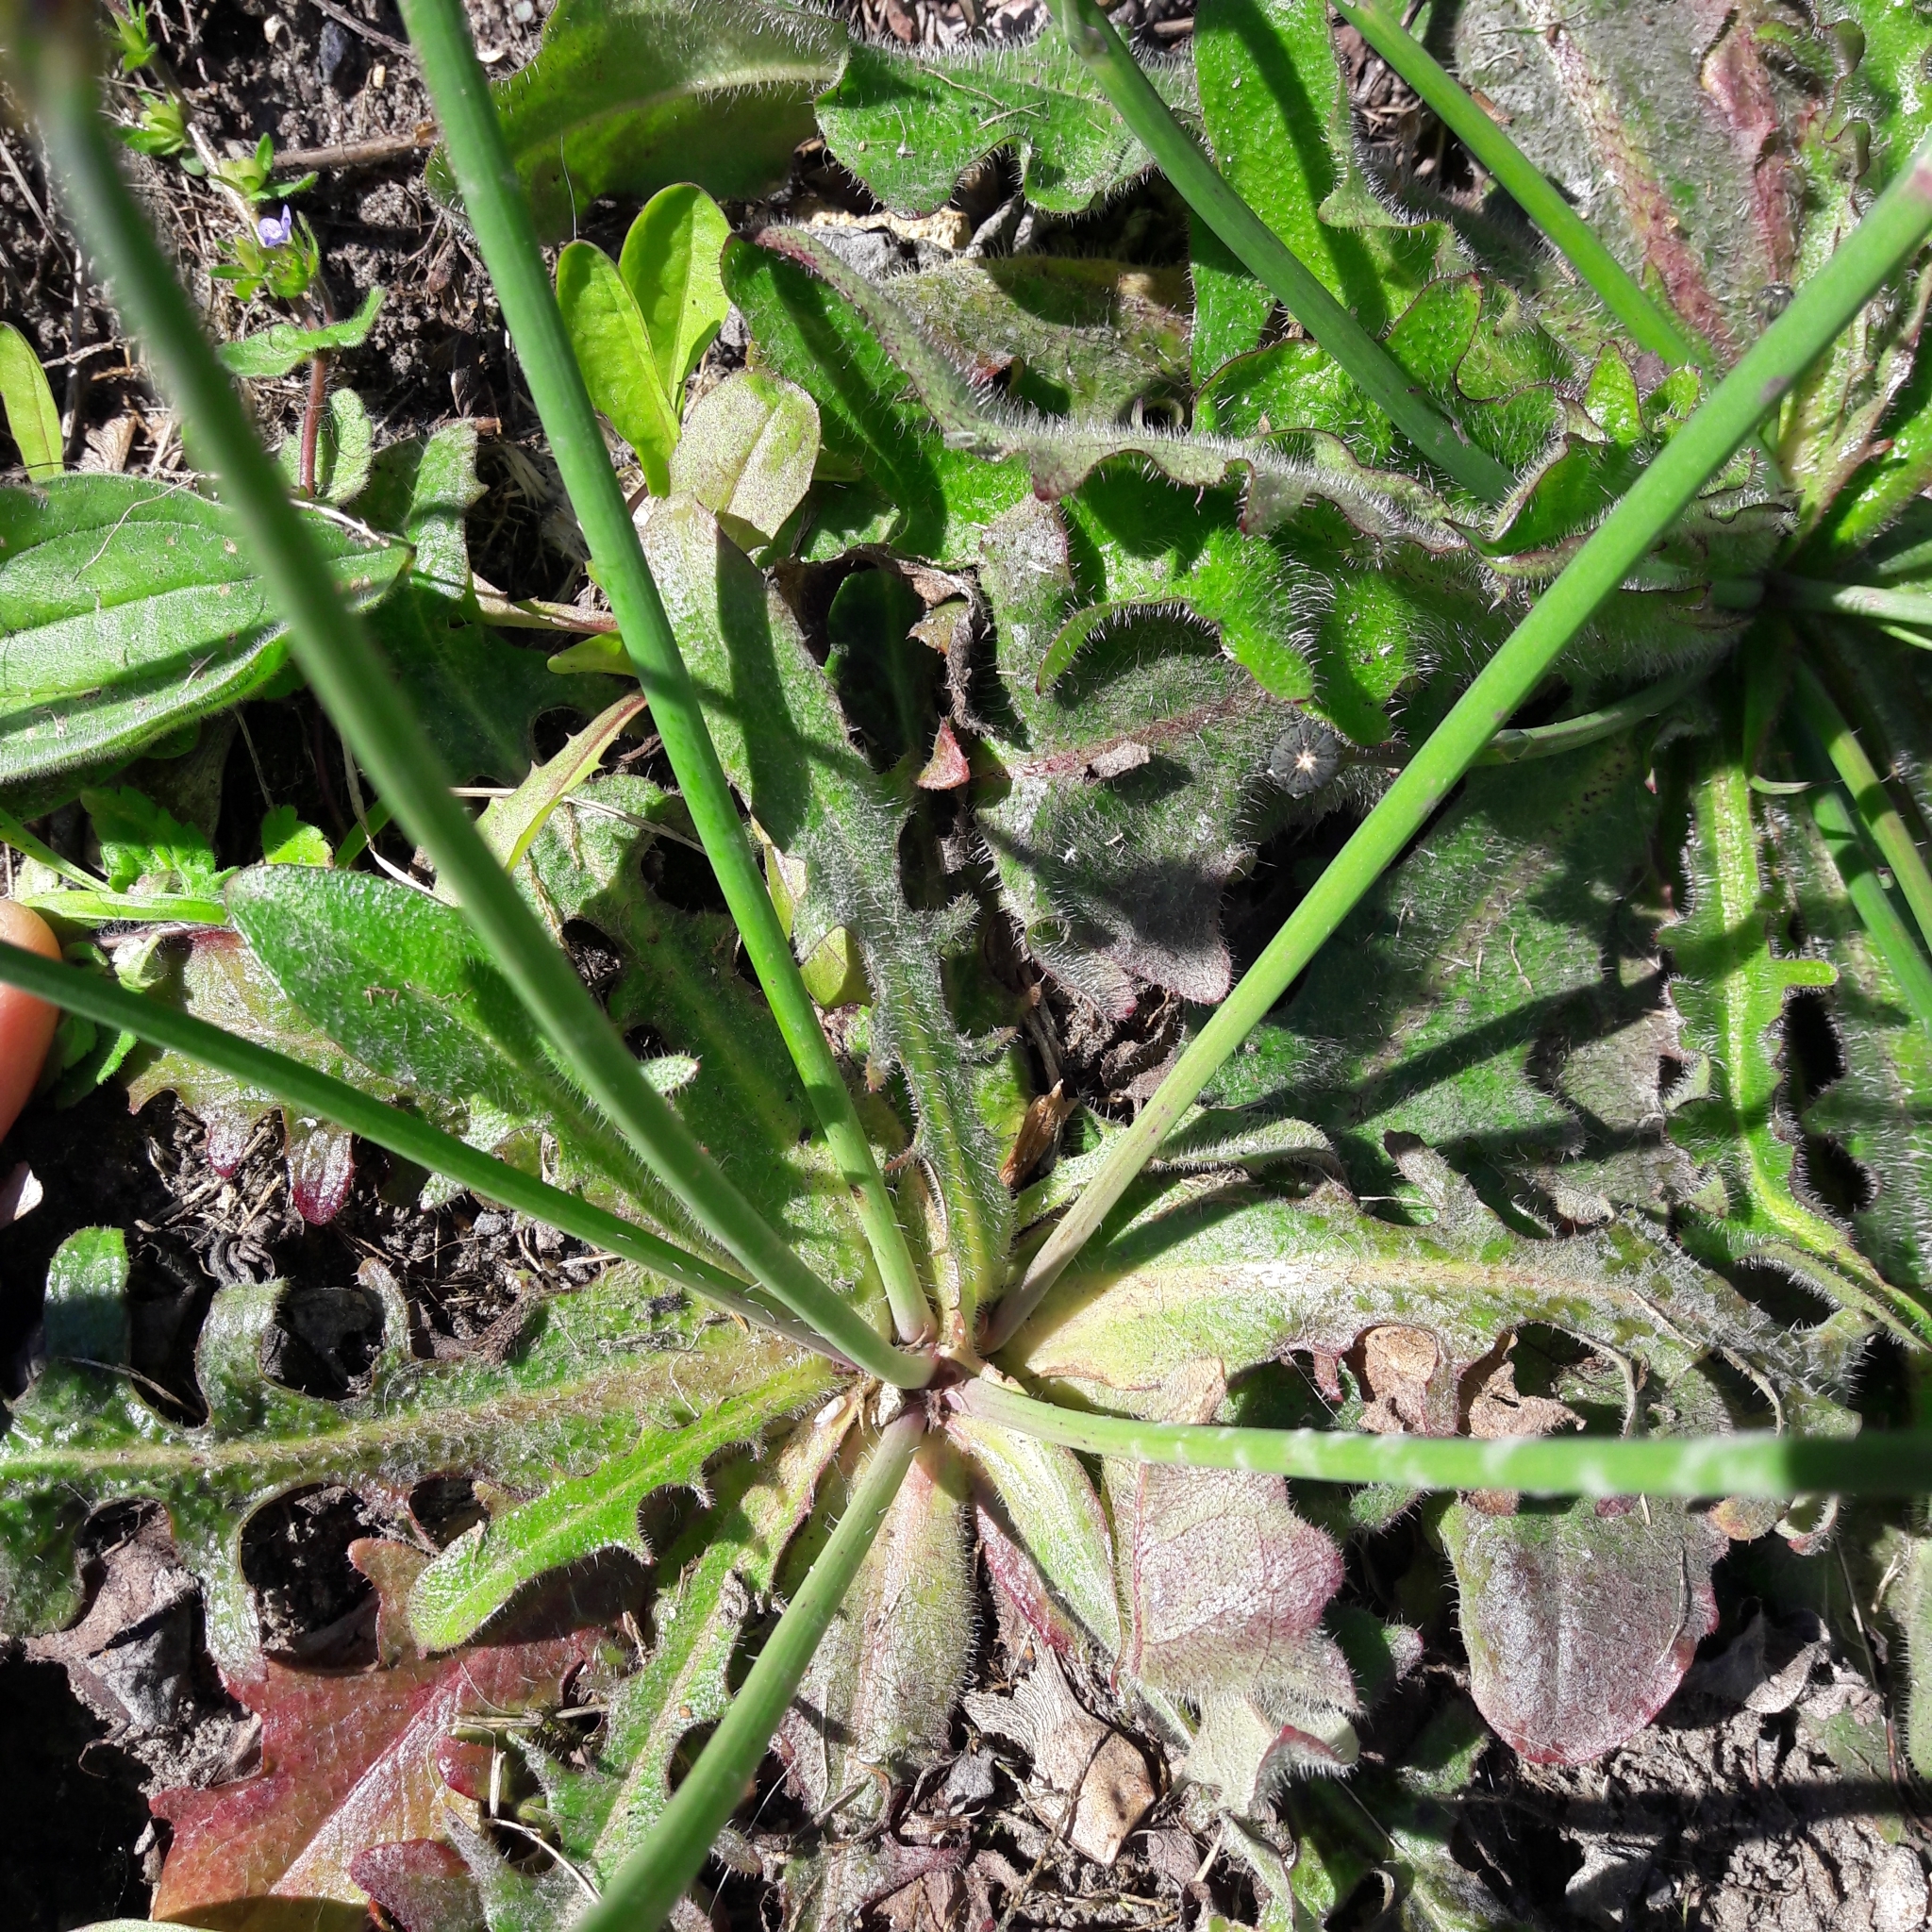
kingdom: Plantae
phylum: Tracheophyta
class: Magnoliopsida
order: Asterales
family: Asteraceae
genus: Hypochaeris
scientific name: Hypochaeris radicata
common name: Flatweed
